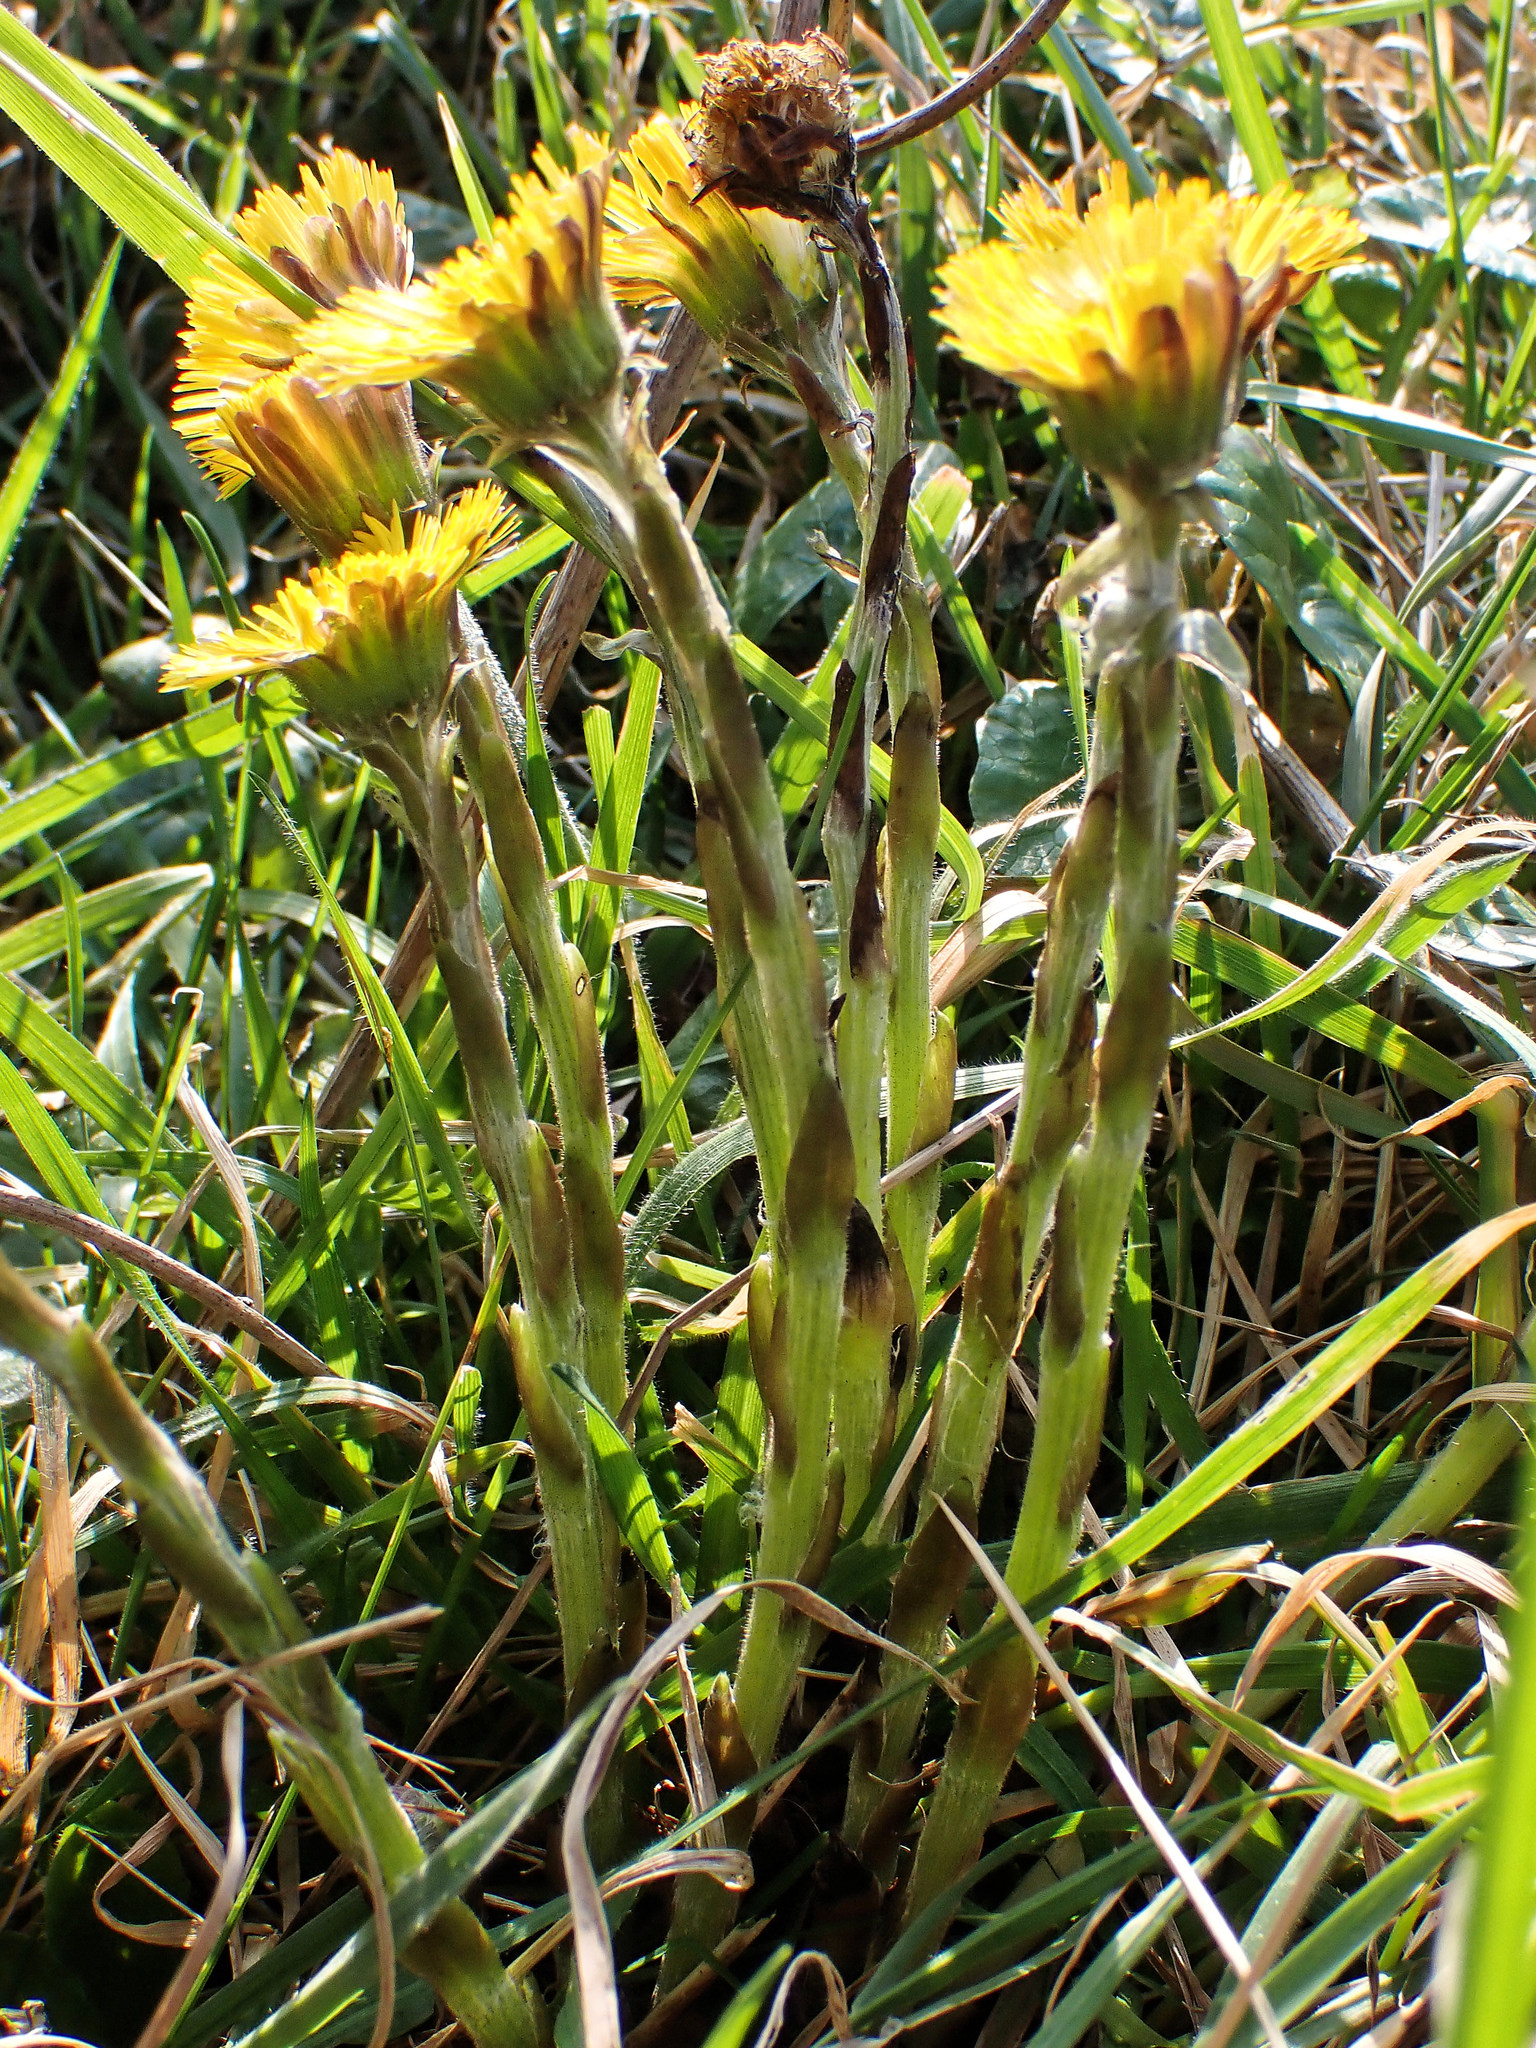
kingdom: Plantae
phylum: Tracheophyta
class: Magnoliopsida
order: Asterales
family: Asteraceae
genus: Tussilago
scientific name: Tussilago farfara
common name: Coltsfoot
